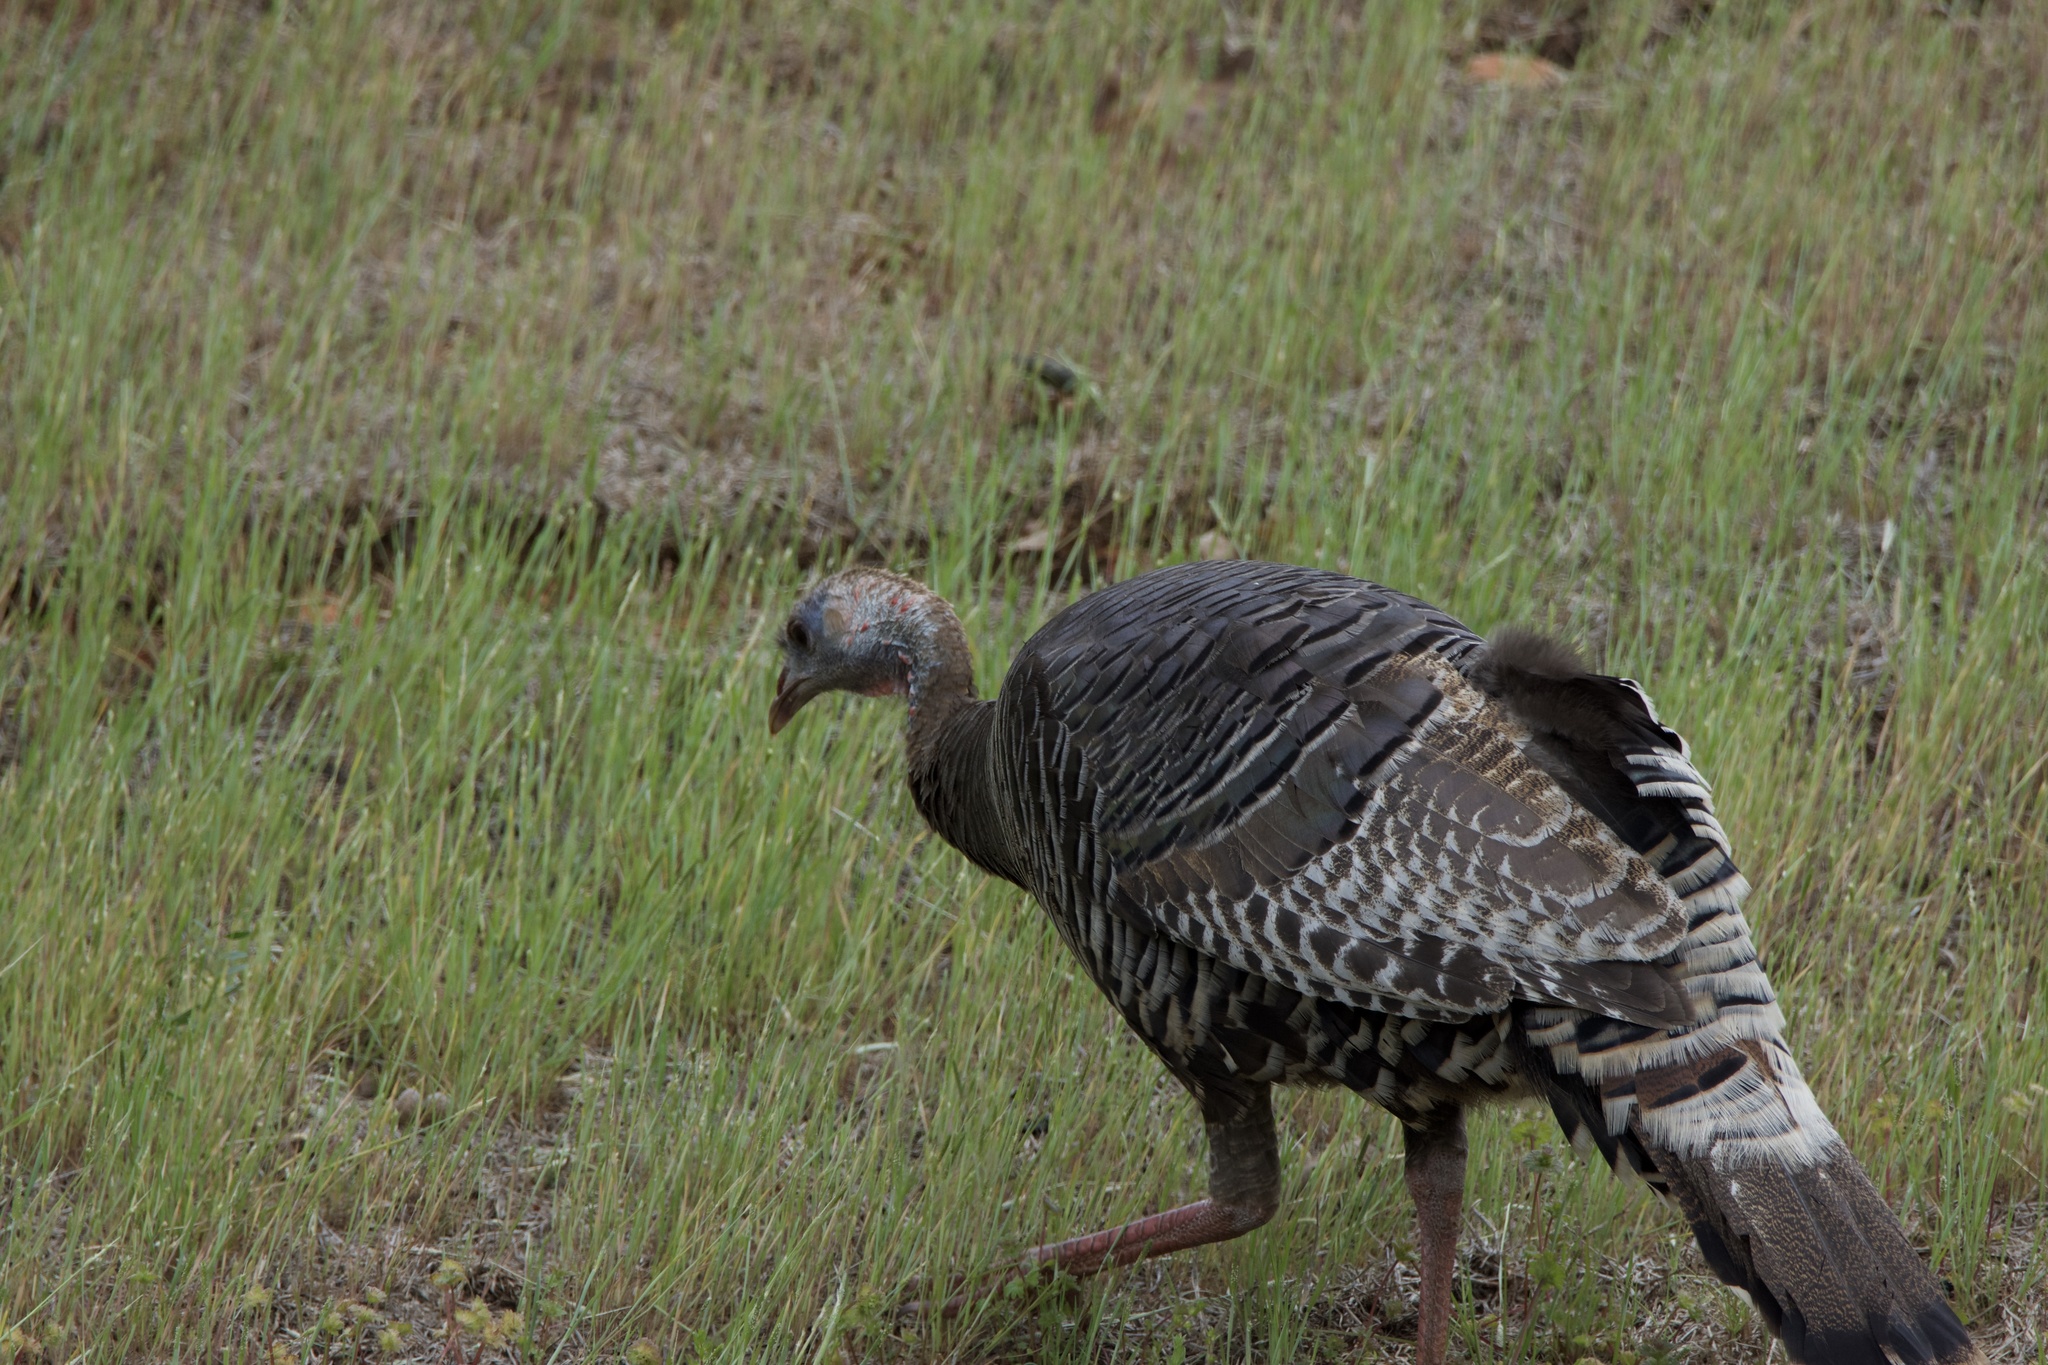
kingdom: Animalia
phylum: Chordata
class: Aves
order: Galliformes
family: Phasianidae
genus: Meleagris
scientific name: Meleagris gallopavo
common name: Wild turkey
